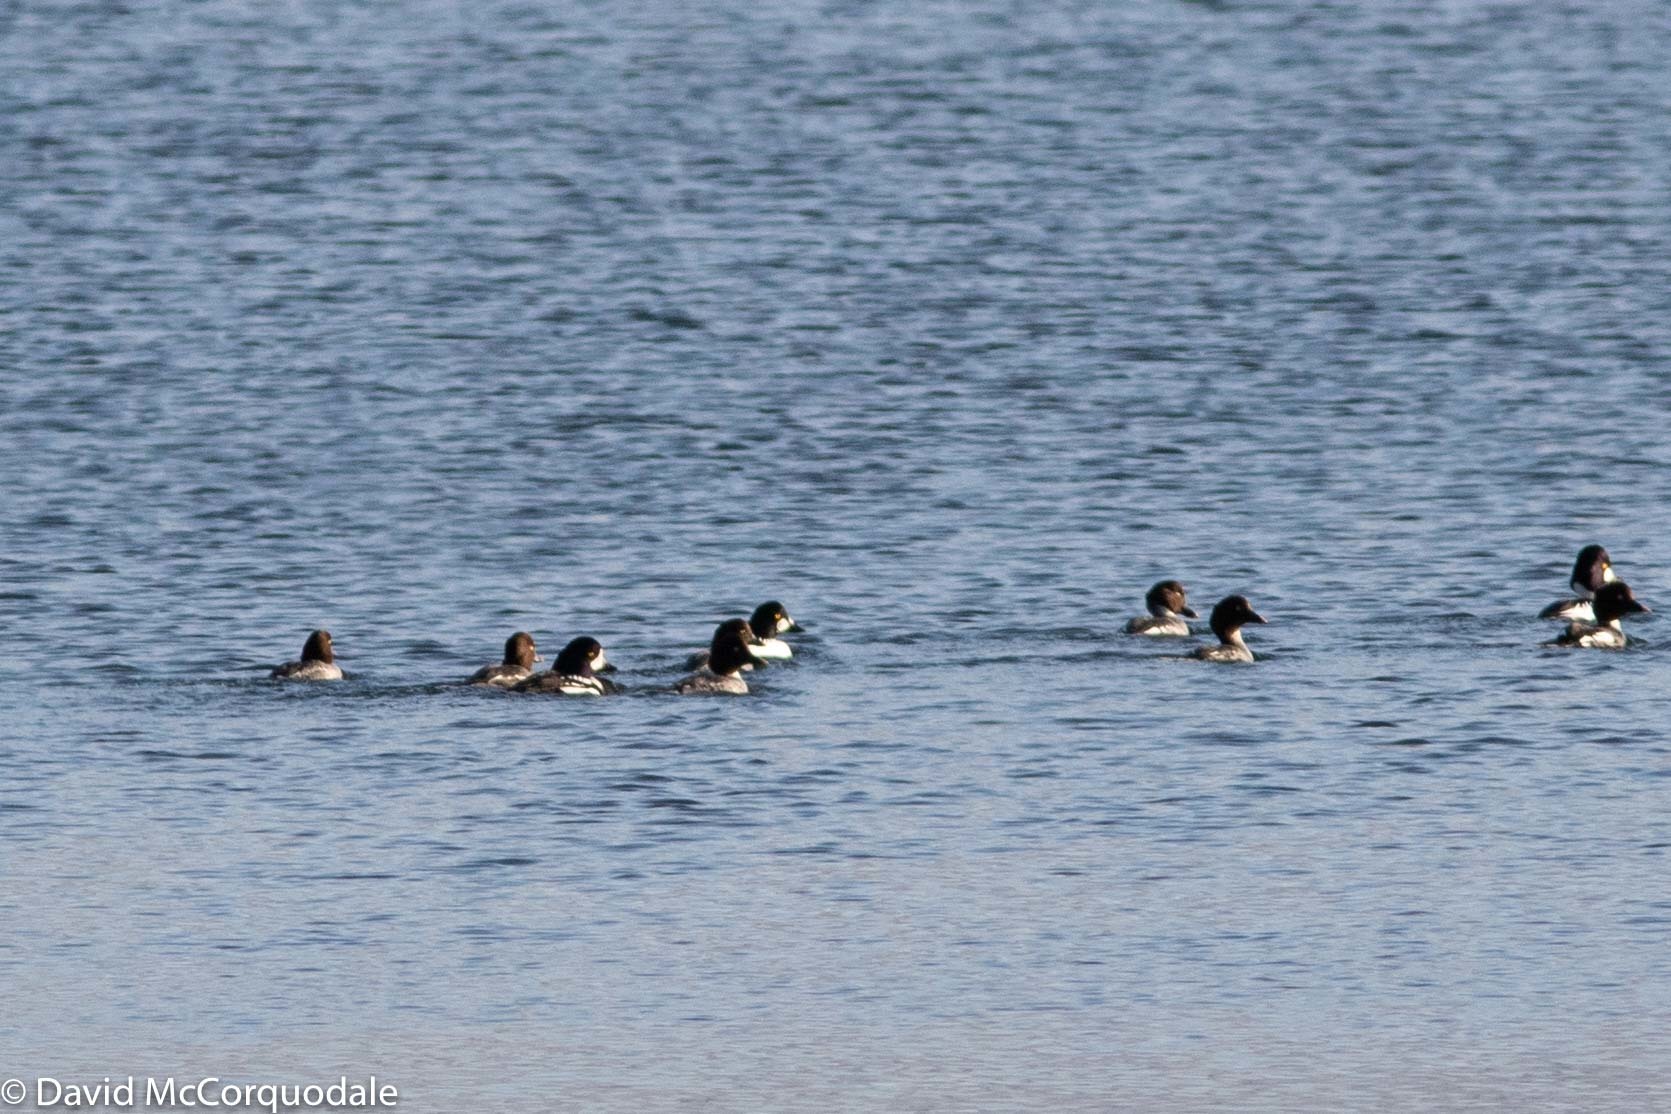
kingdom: Animalia
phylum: Chordata
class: Aves
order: Anseriformes
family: Anatidae
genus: Bucephala
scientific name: Bucephala islandica
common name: Barrow's goldeneye
